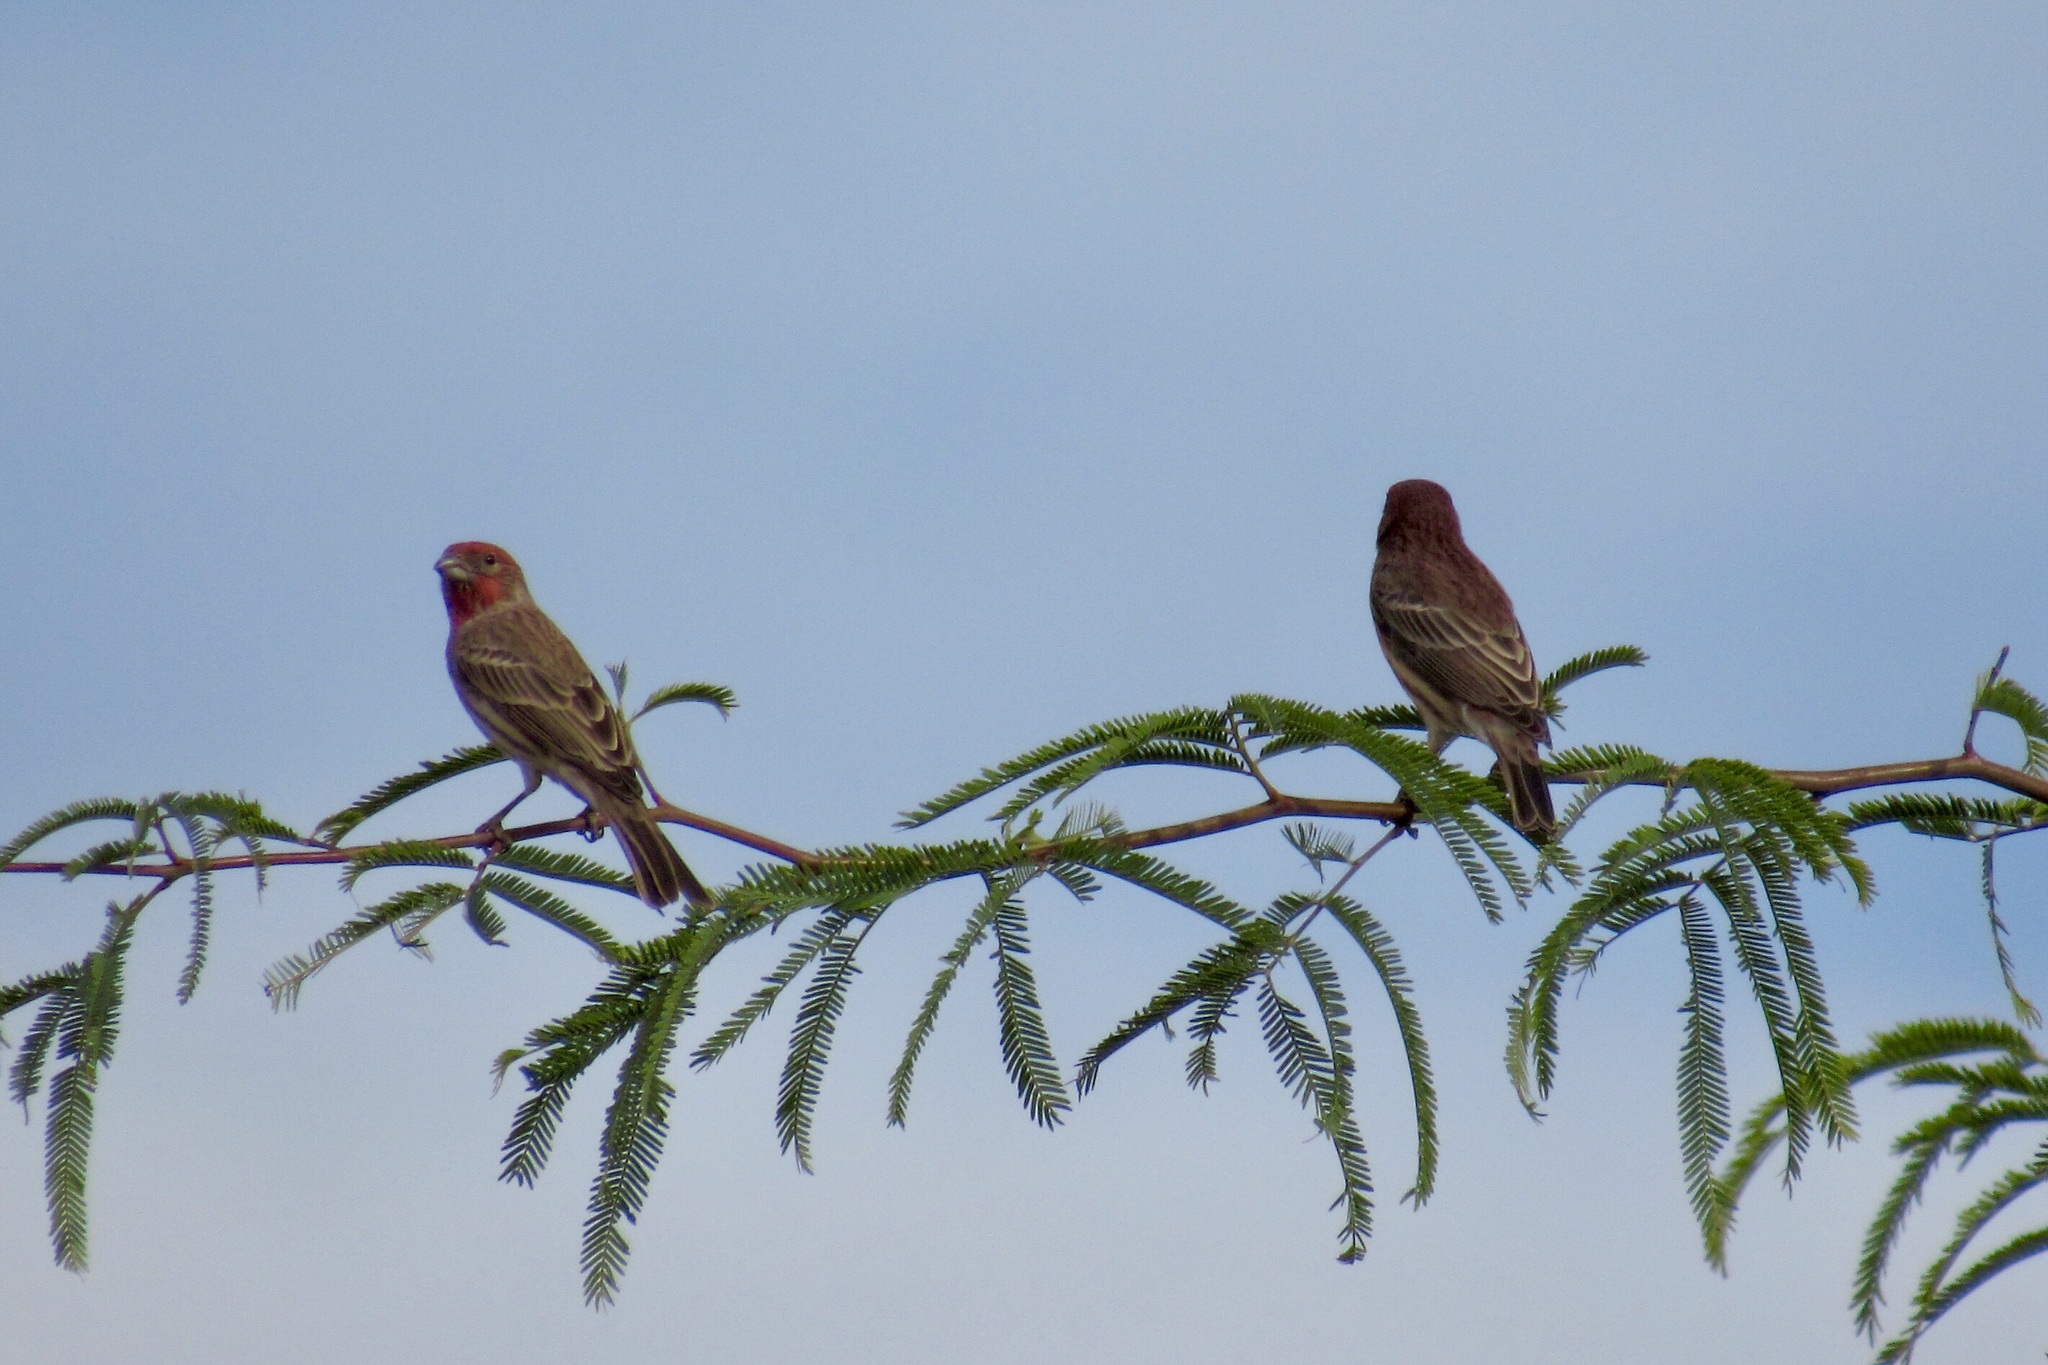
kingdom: Animalia
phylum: Chordata
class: Aves
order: Passeriformes
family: Fringillidae
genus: Haemorhous
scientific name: Haemorhous mexicanus
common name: House finch
